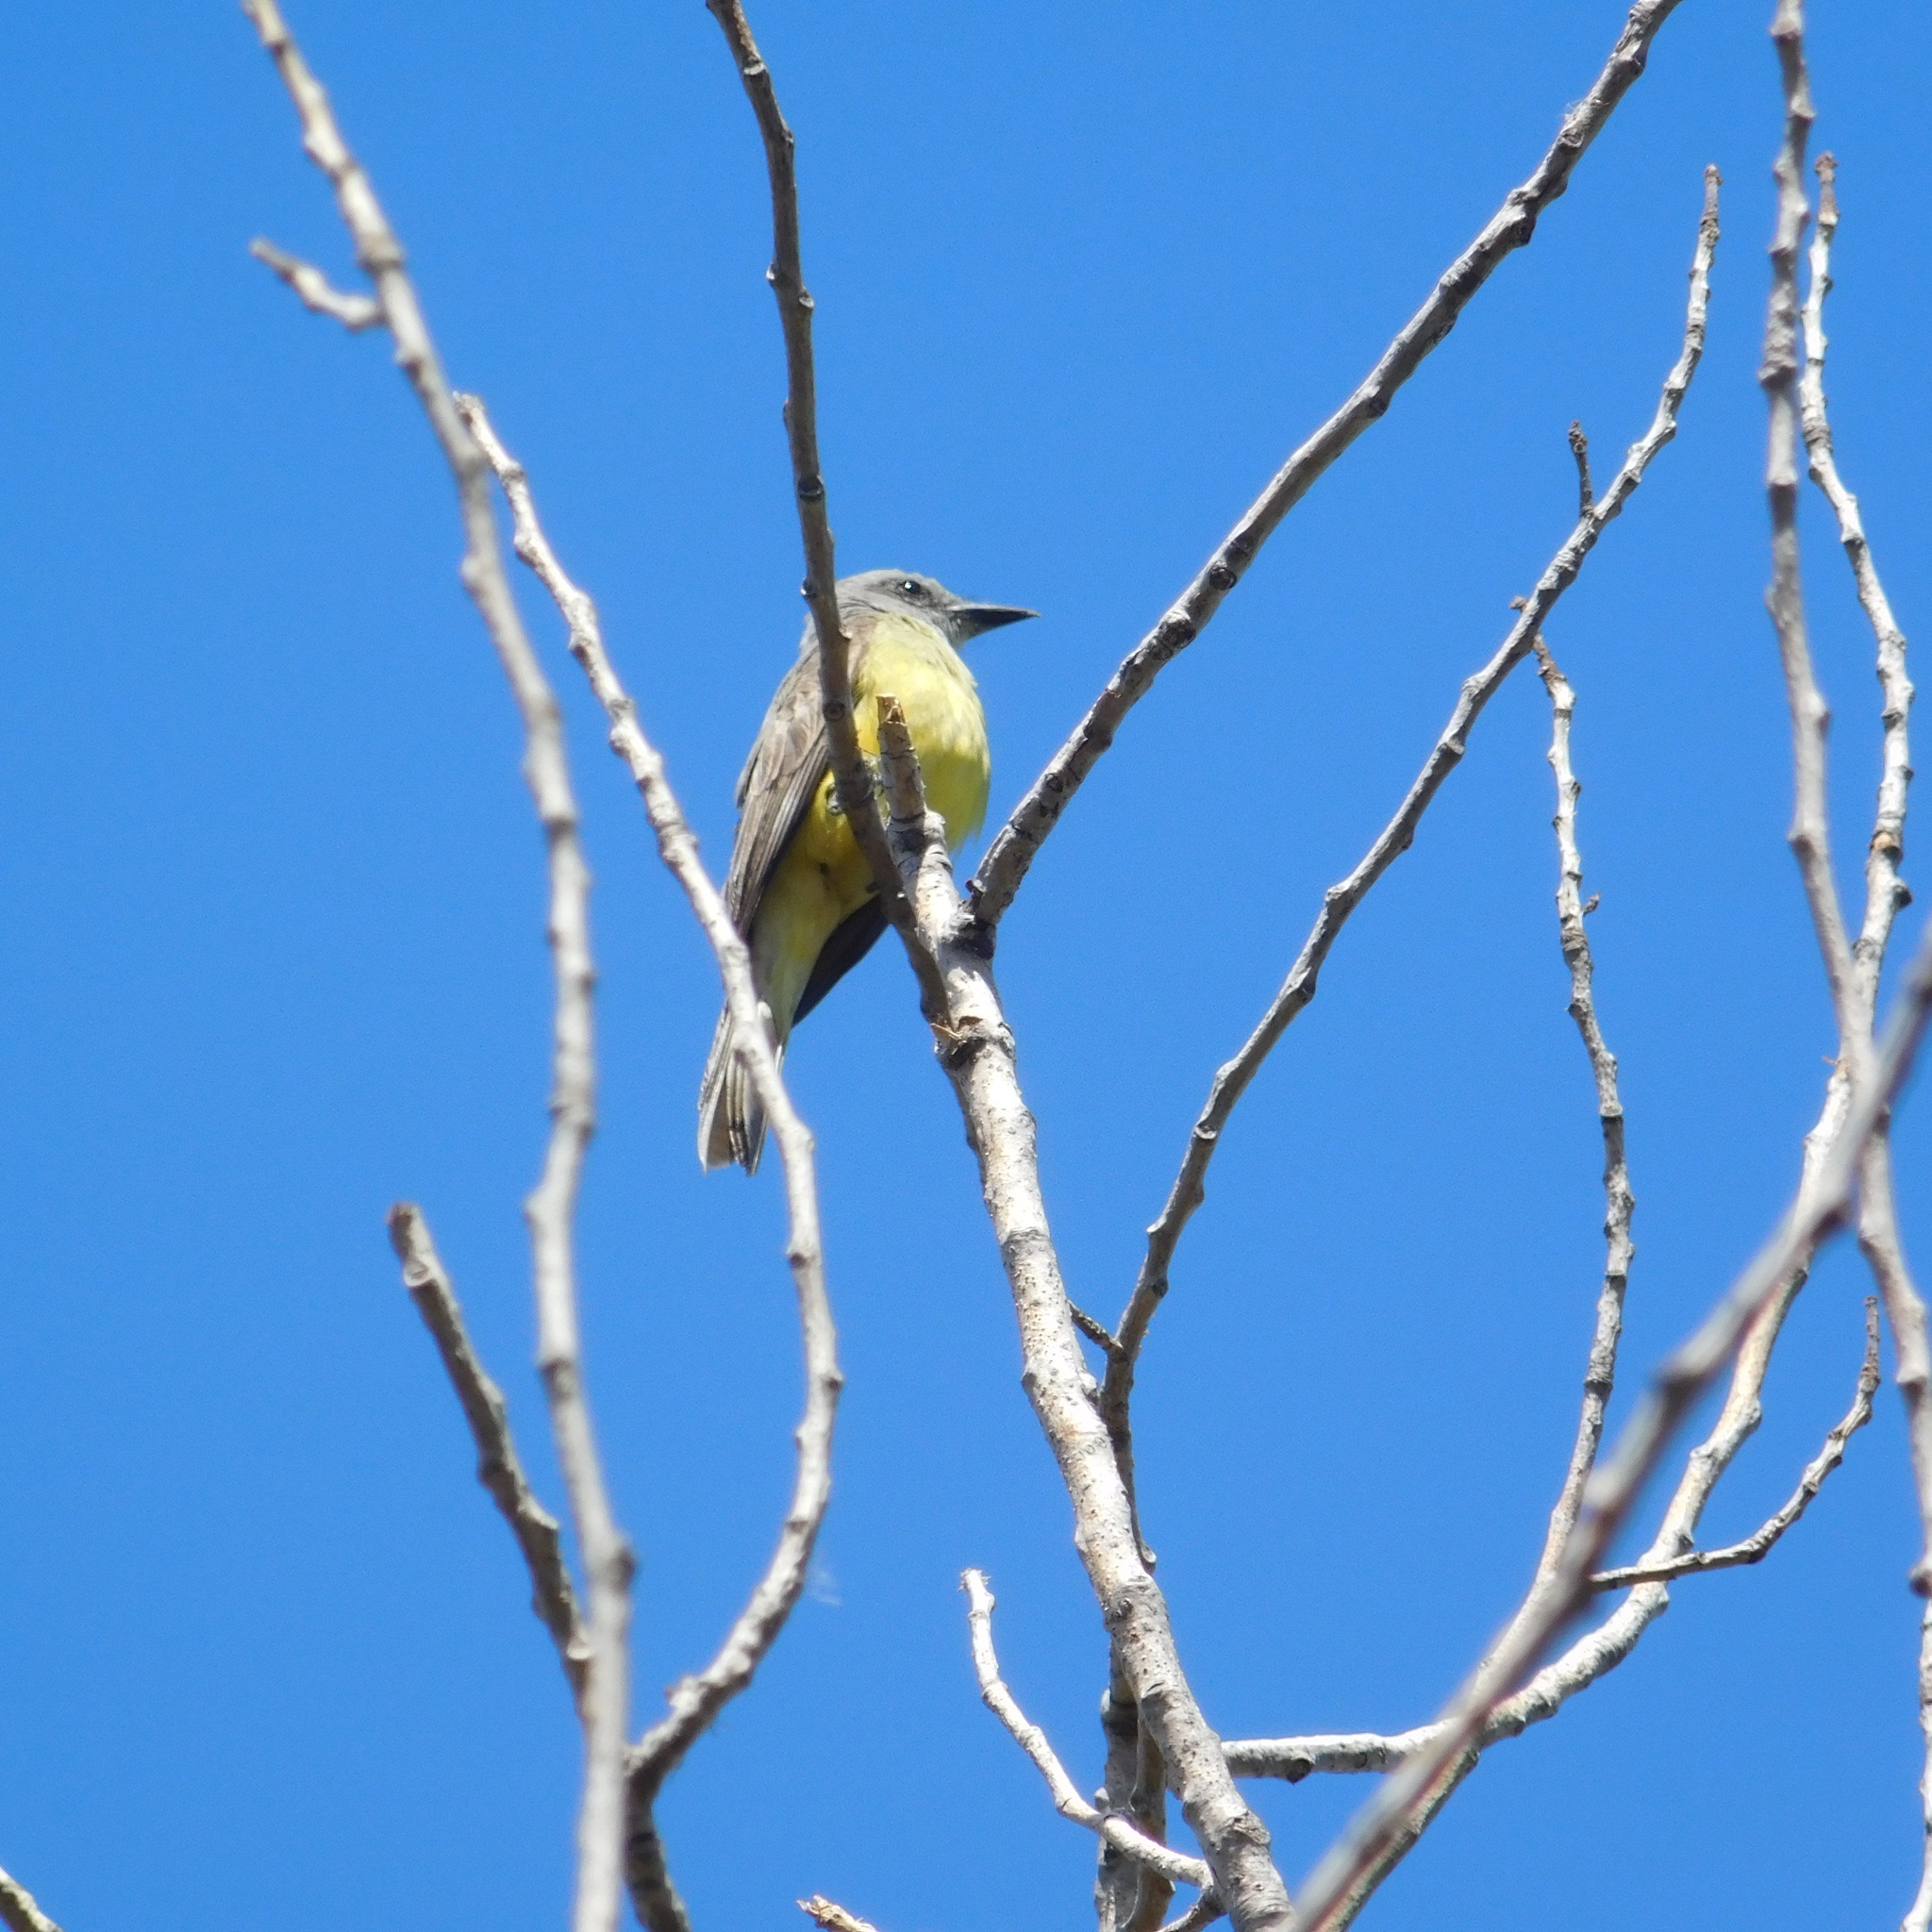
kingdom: Animalia
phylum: Chordata
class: Aves
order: Passeriformes
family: Tyrannidae
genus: Tyrannus
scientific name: Tyrannus melancholicus
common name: Tropical kingbird
